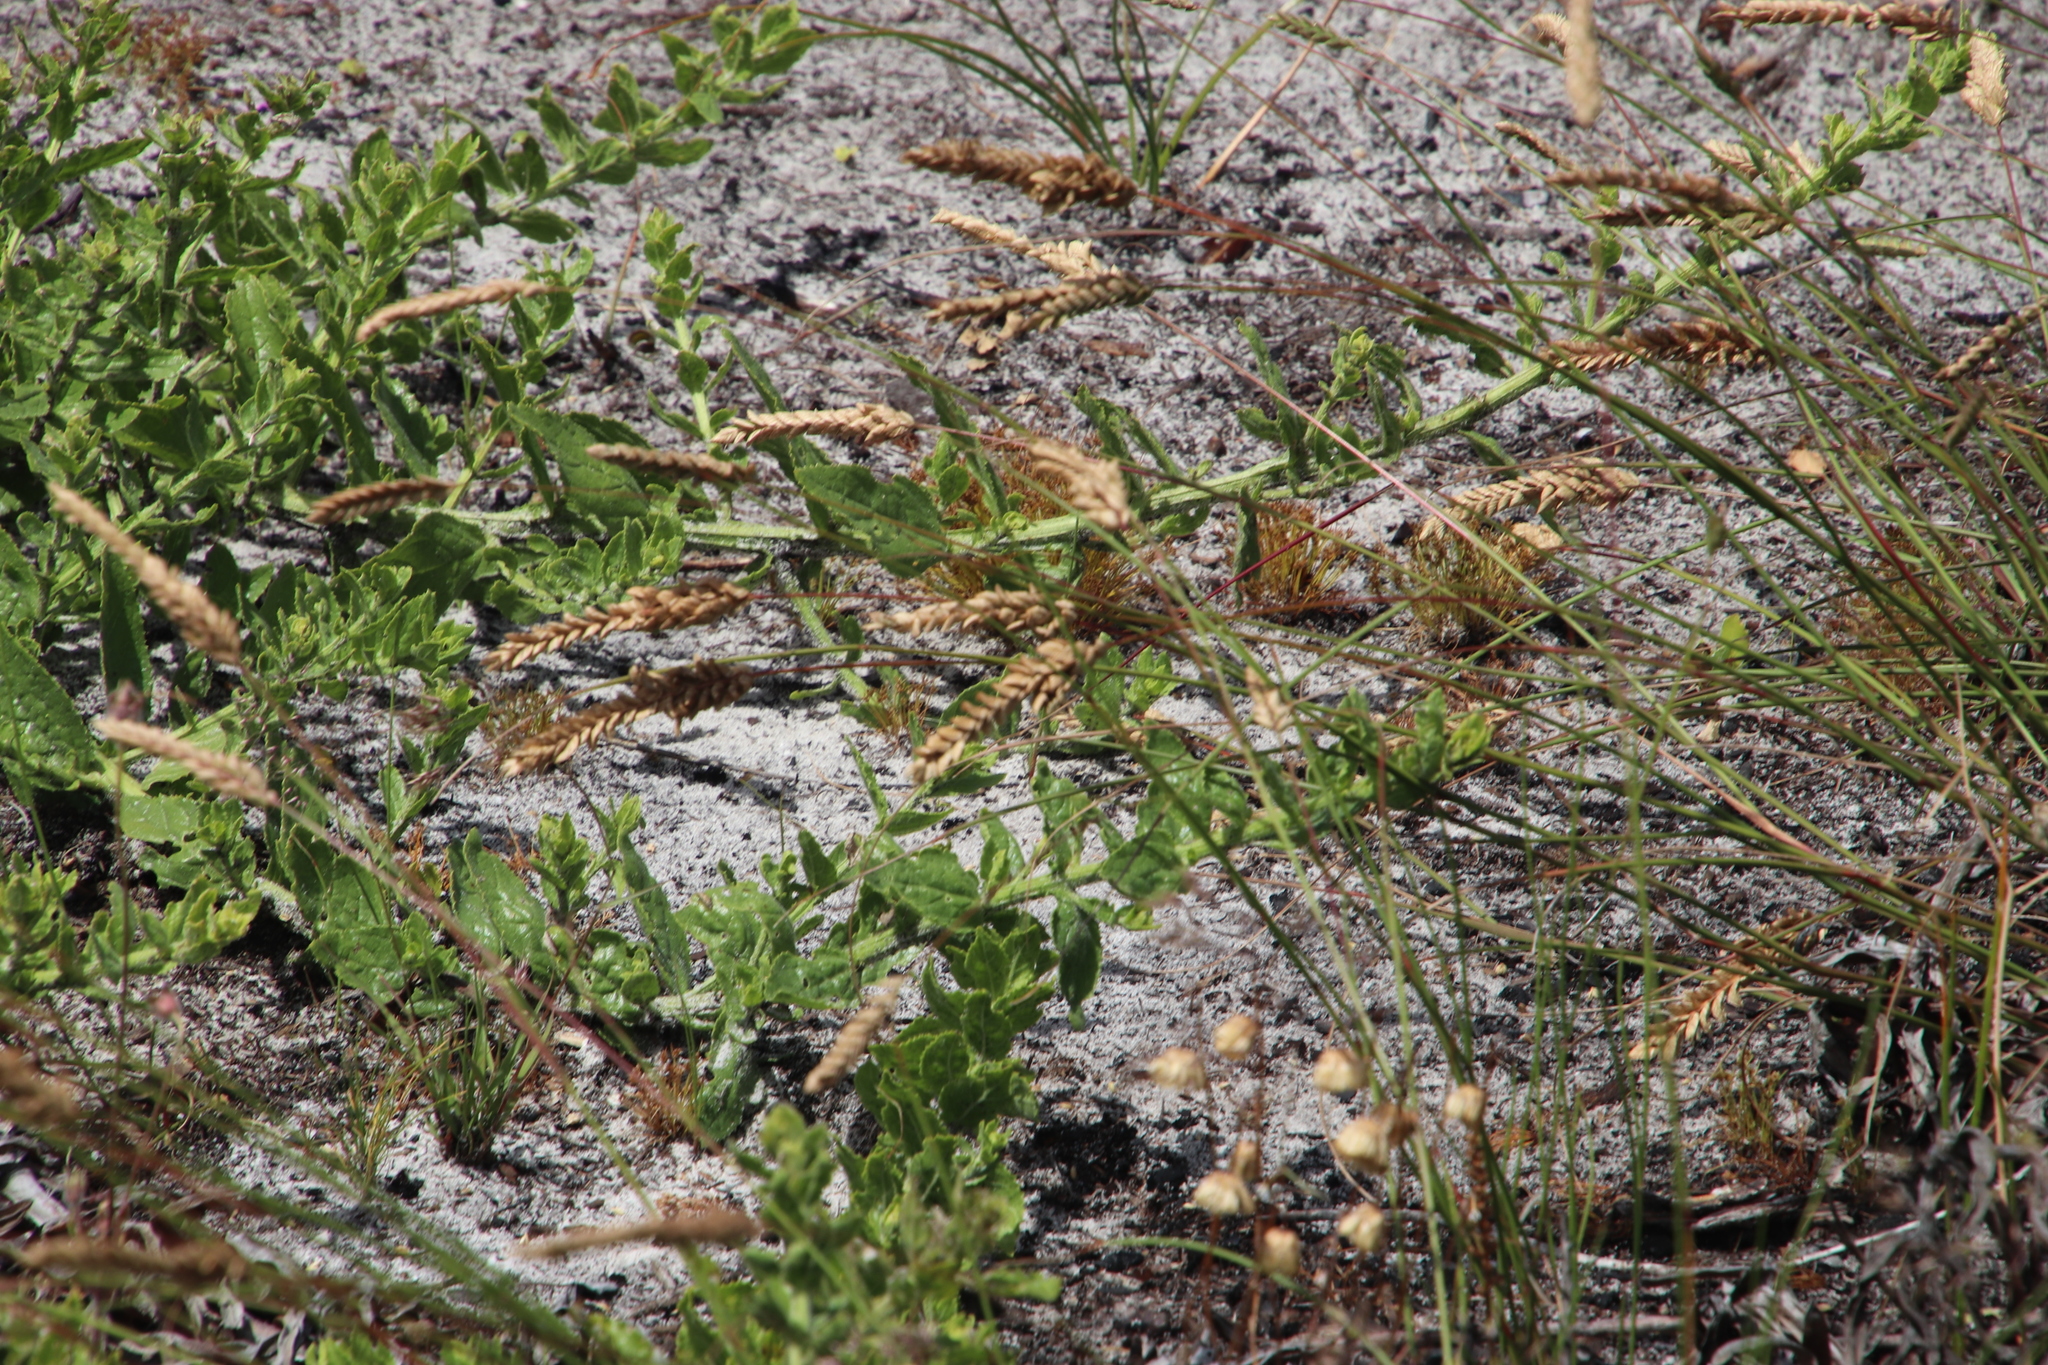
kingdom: Plantae
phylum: Tracheophyta
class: Liliopsida
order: Poales
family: Poaceae
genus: Tribolium
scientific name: Tribolium uniolae
